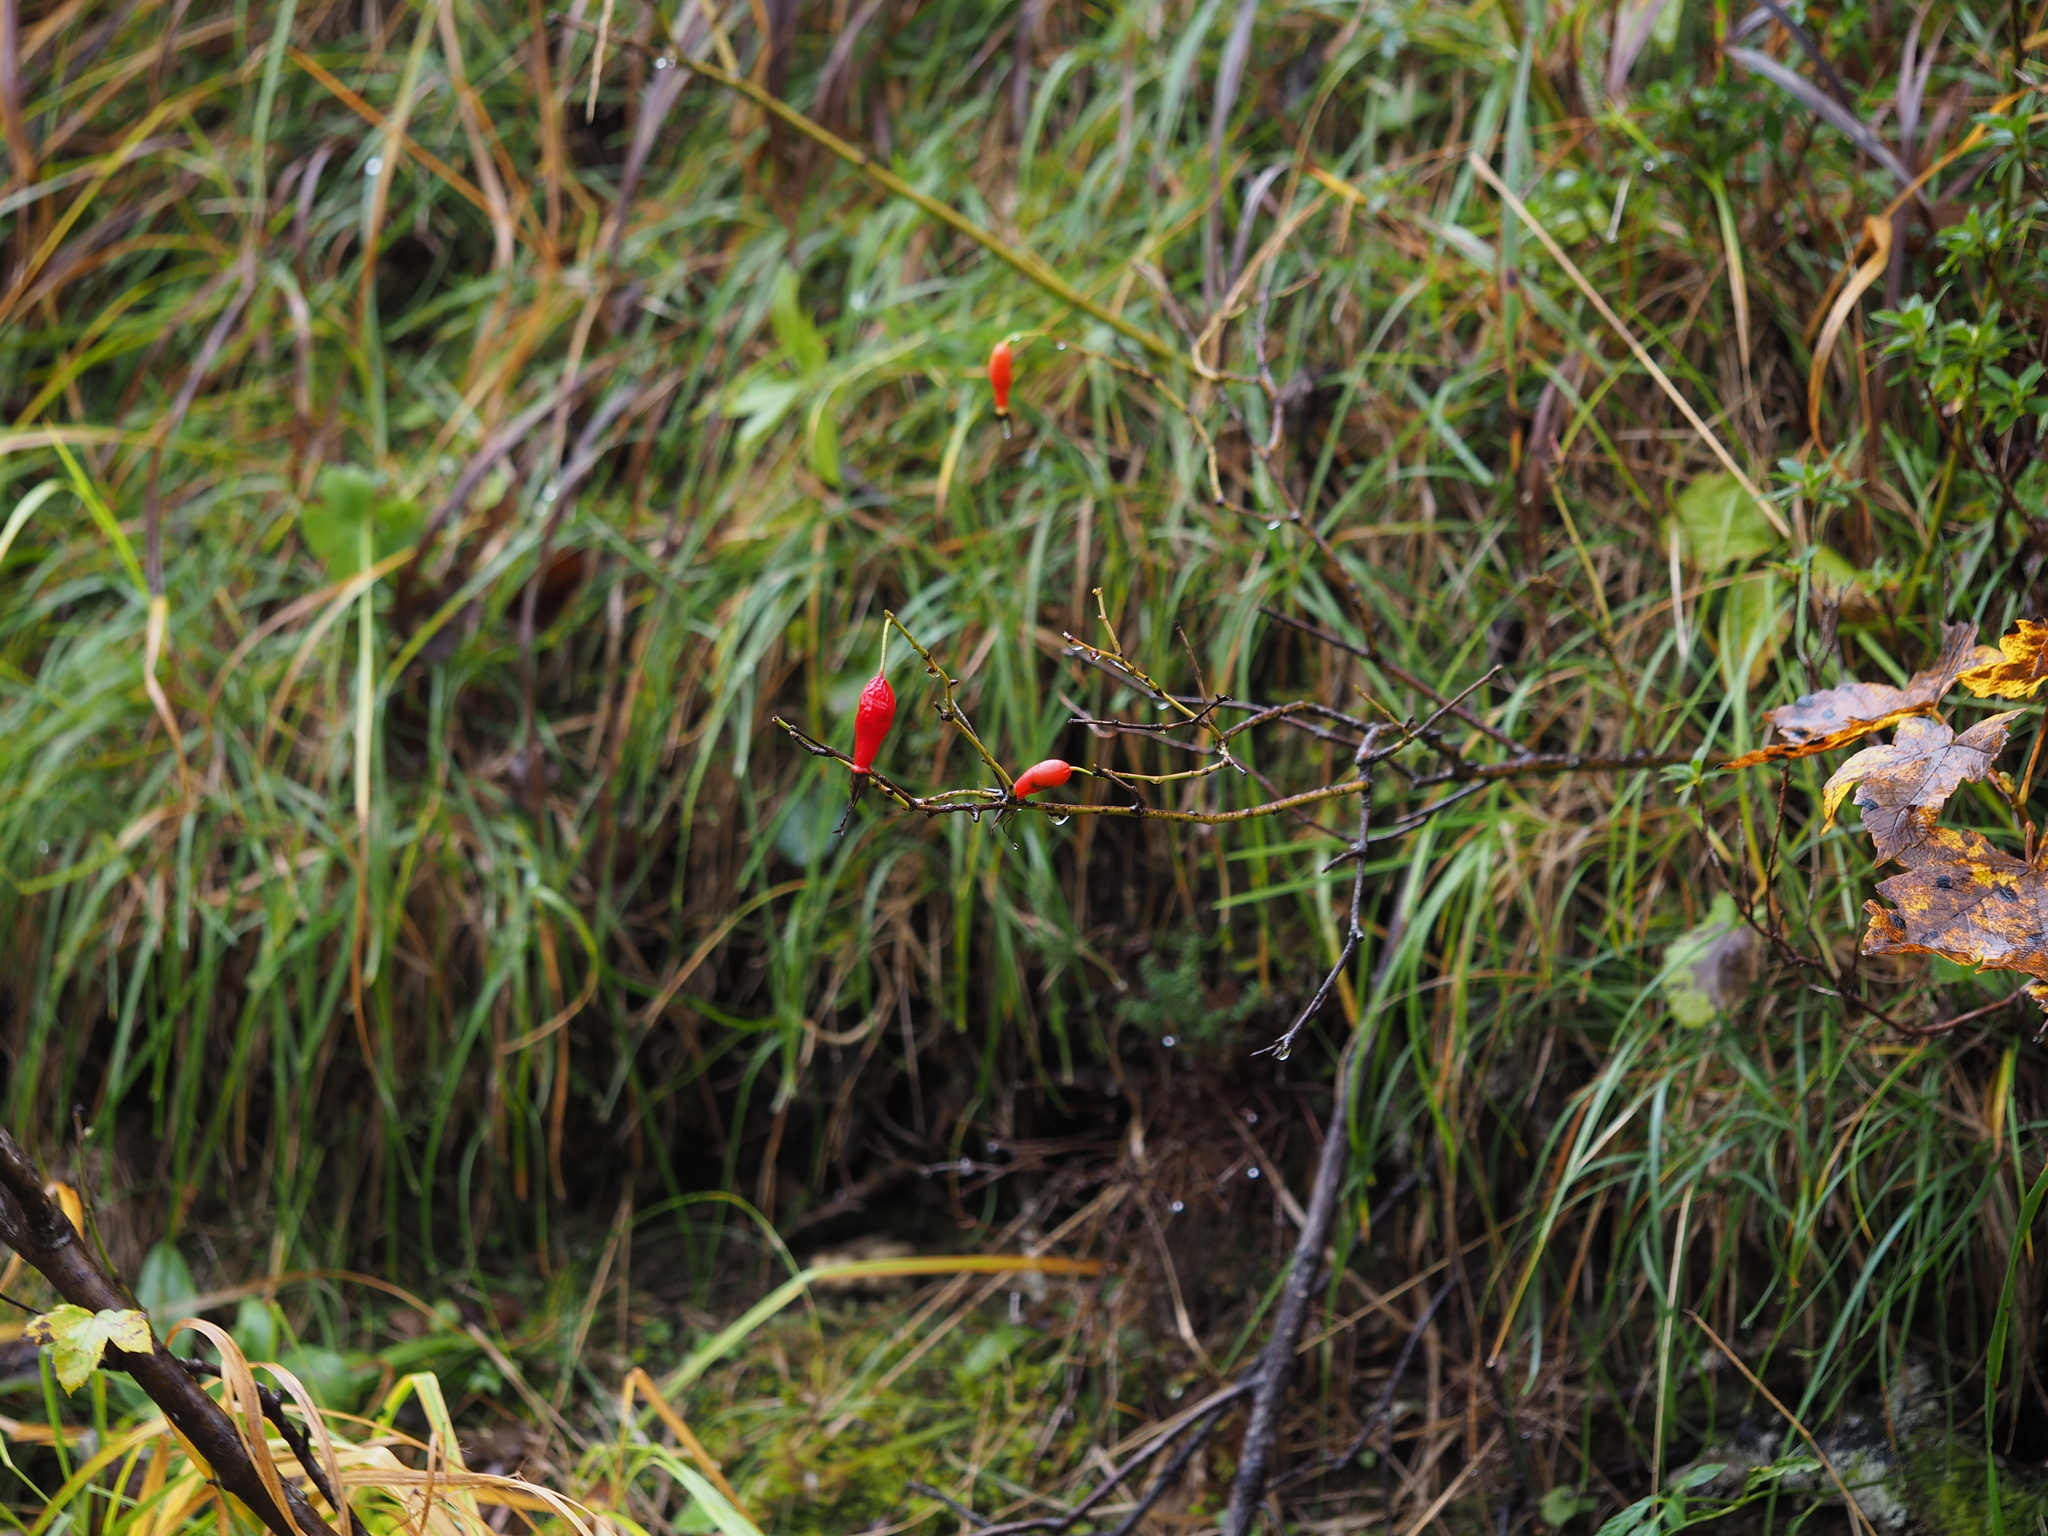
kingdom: Plantae
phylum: Tracheophyta
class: Magnoliopsida
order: Rosales
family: Rosaceae
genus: Rosa
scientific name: Rosa pendulina
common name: Alpine rose
